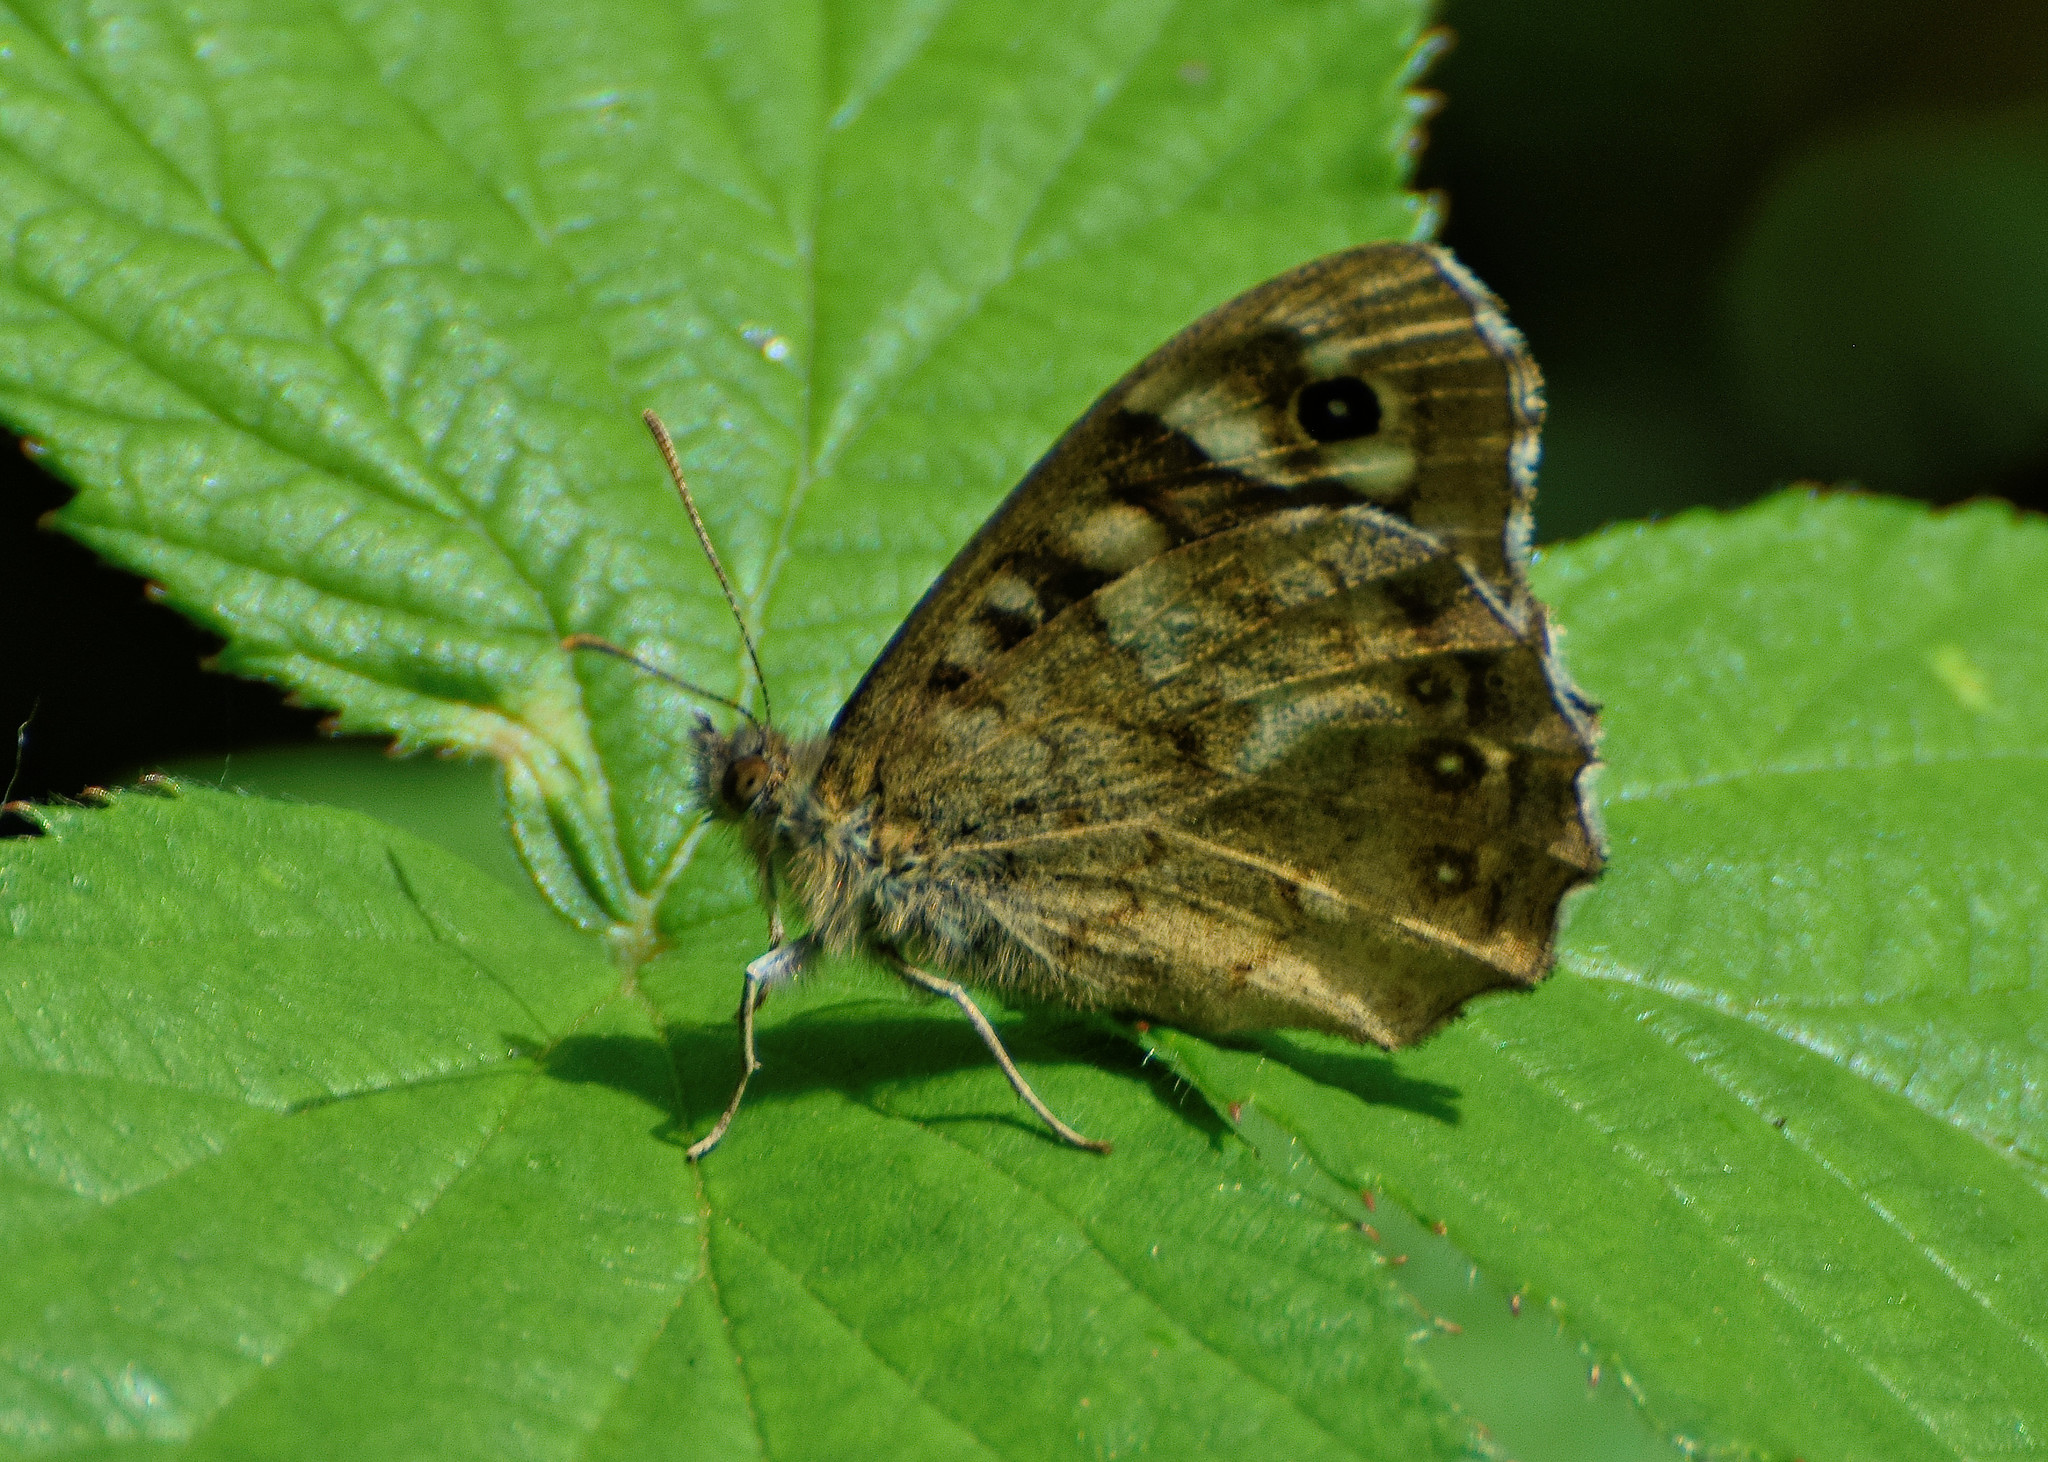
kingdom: Animalia
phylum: Arthropoda
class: Insecta
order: Lepidoptera
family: Nymphalidae
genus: Pararge
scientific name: Pararge aegeria
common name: Speckled wood
